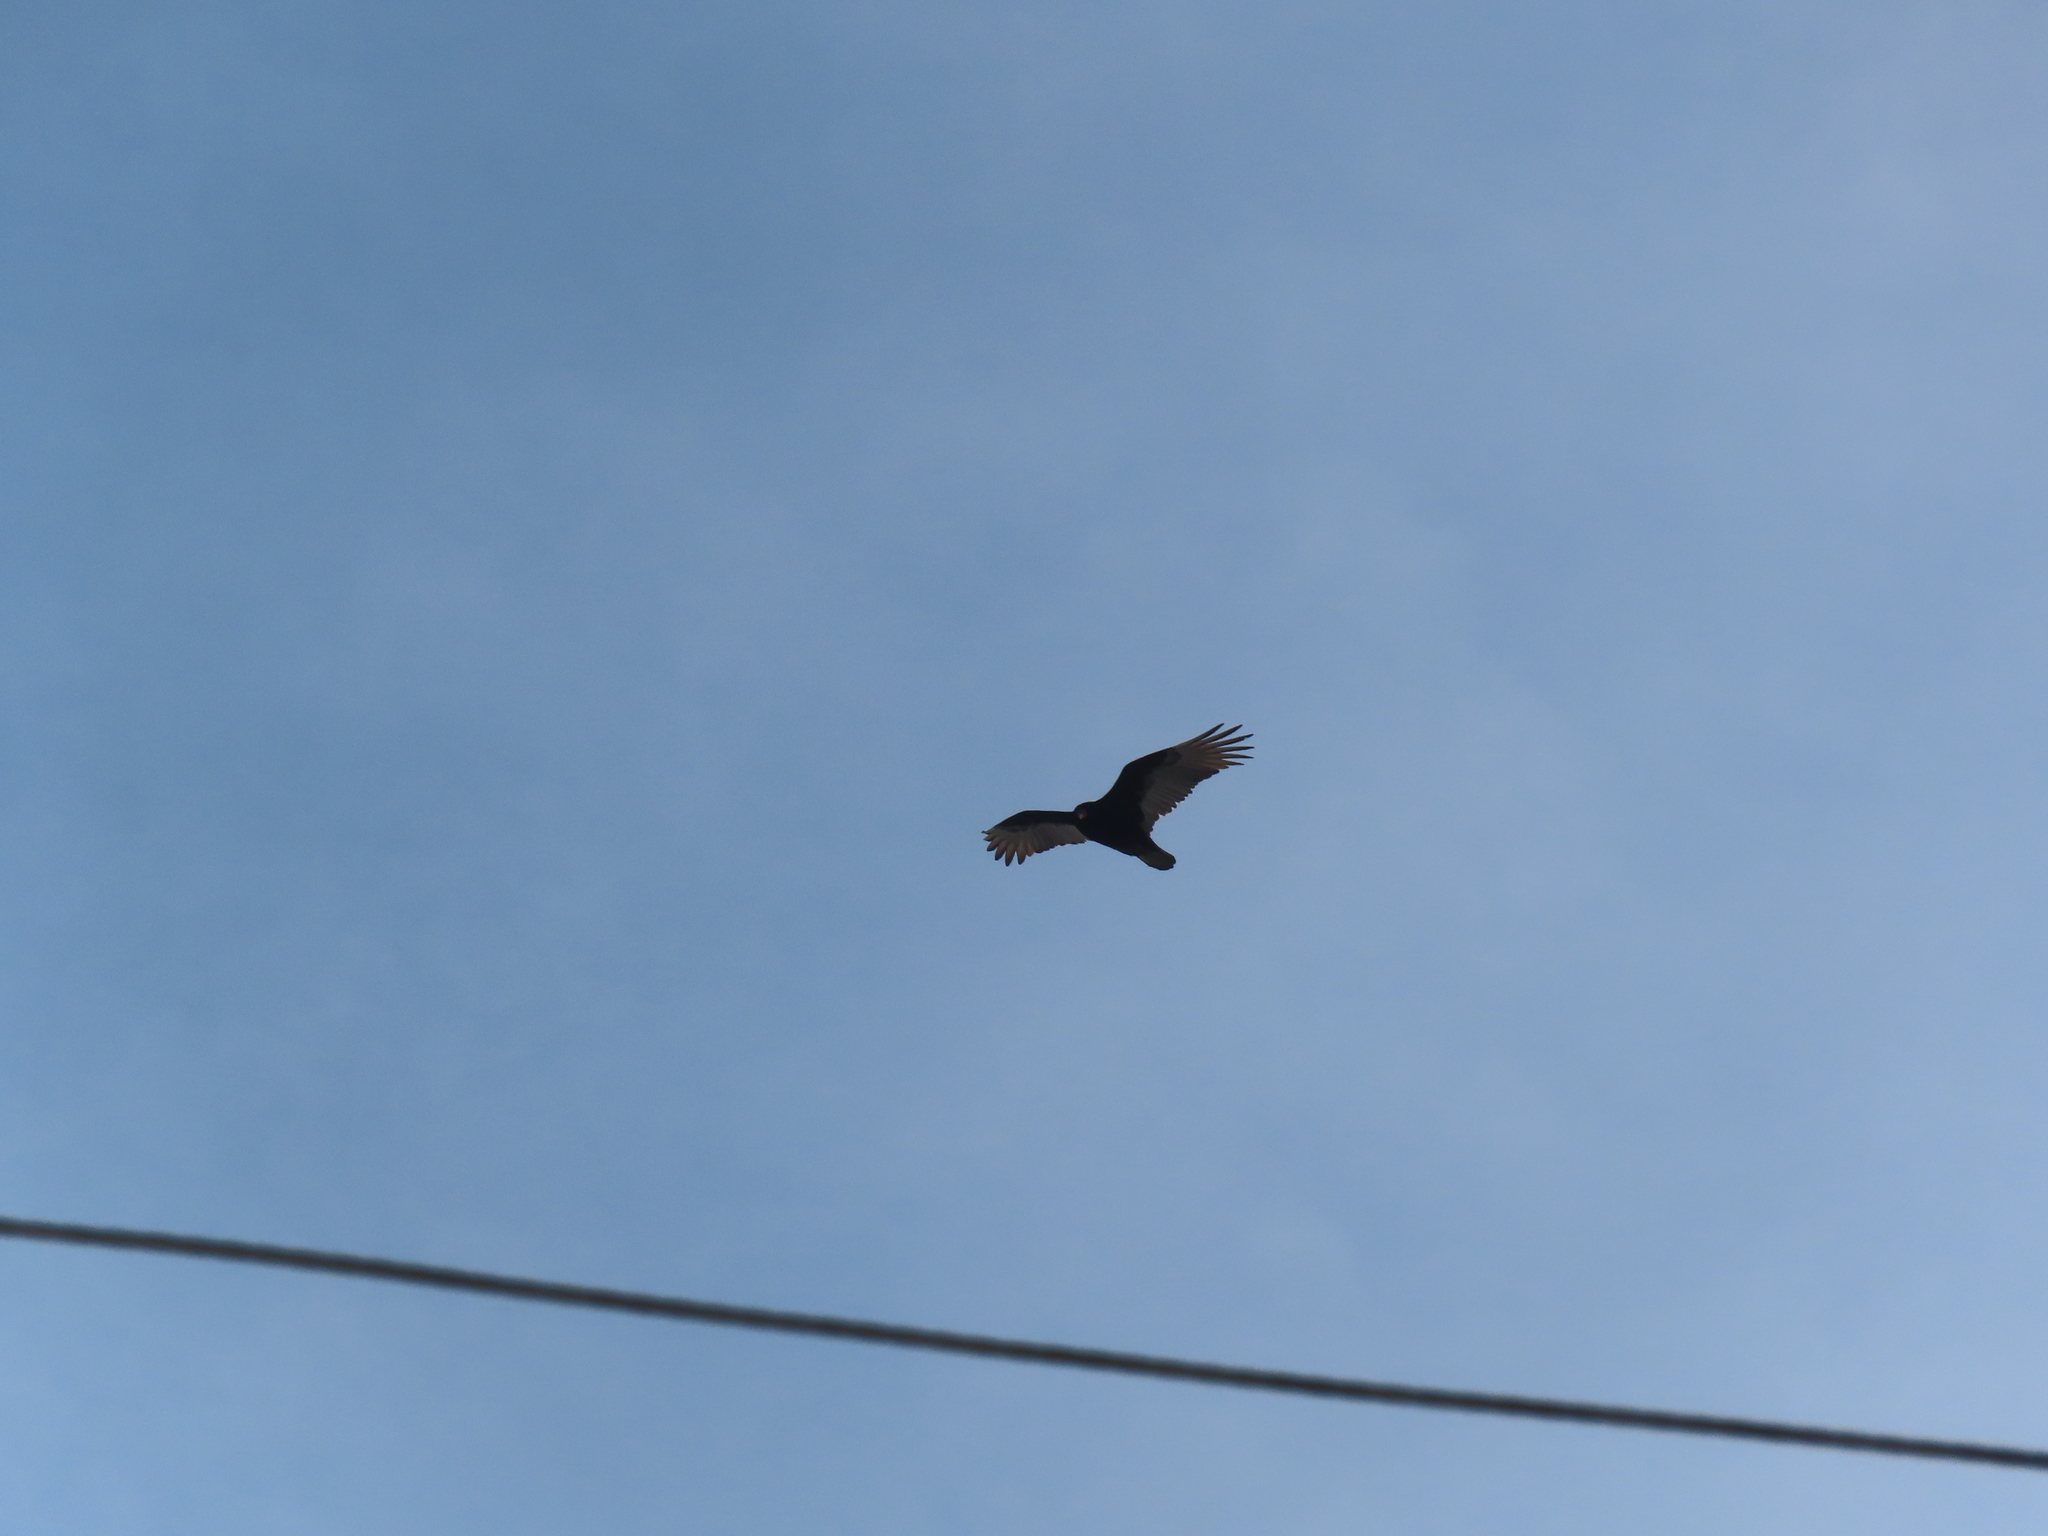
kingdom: Animalia
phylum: Chordata
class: Aves
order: Accipitriformes
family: Cathartidae
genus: Cathartes
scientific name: Cathartes aura
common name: Turkey vulture
